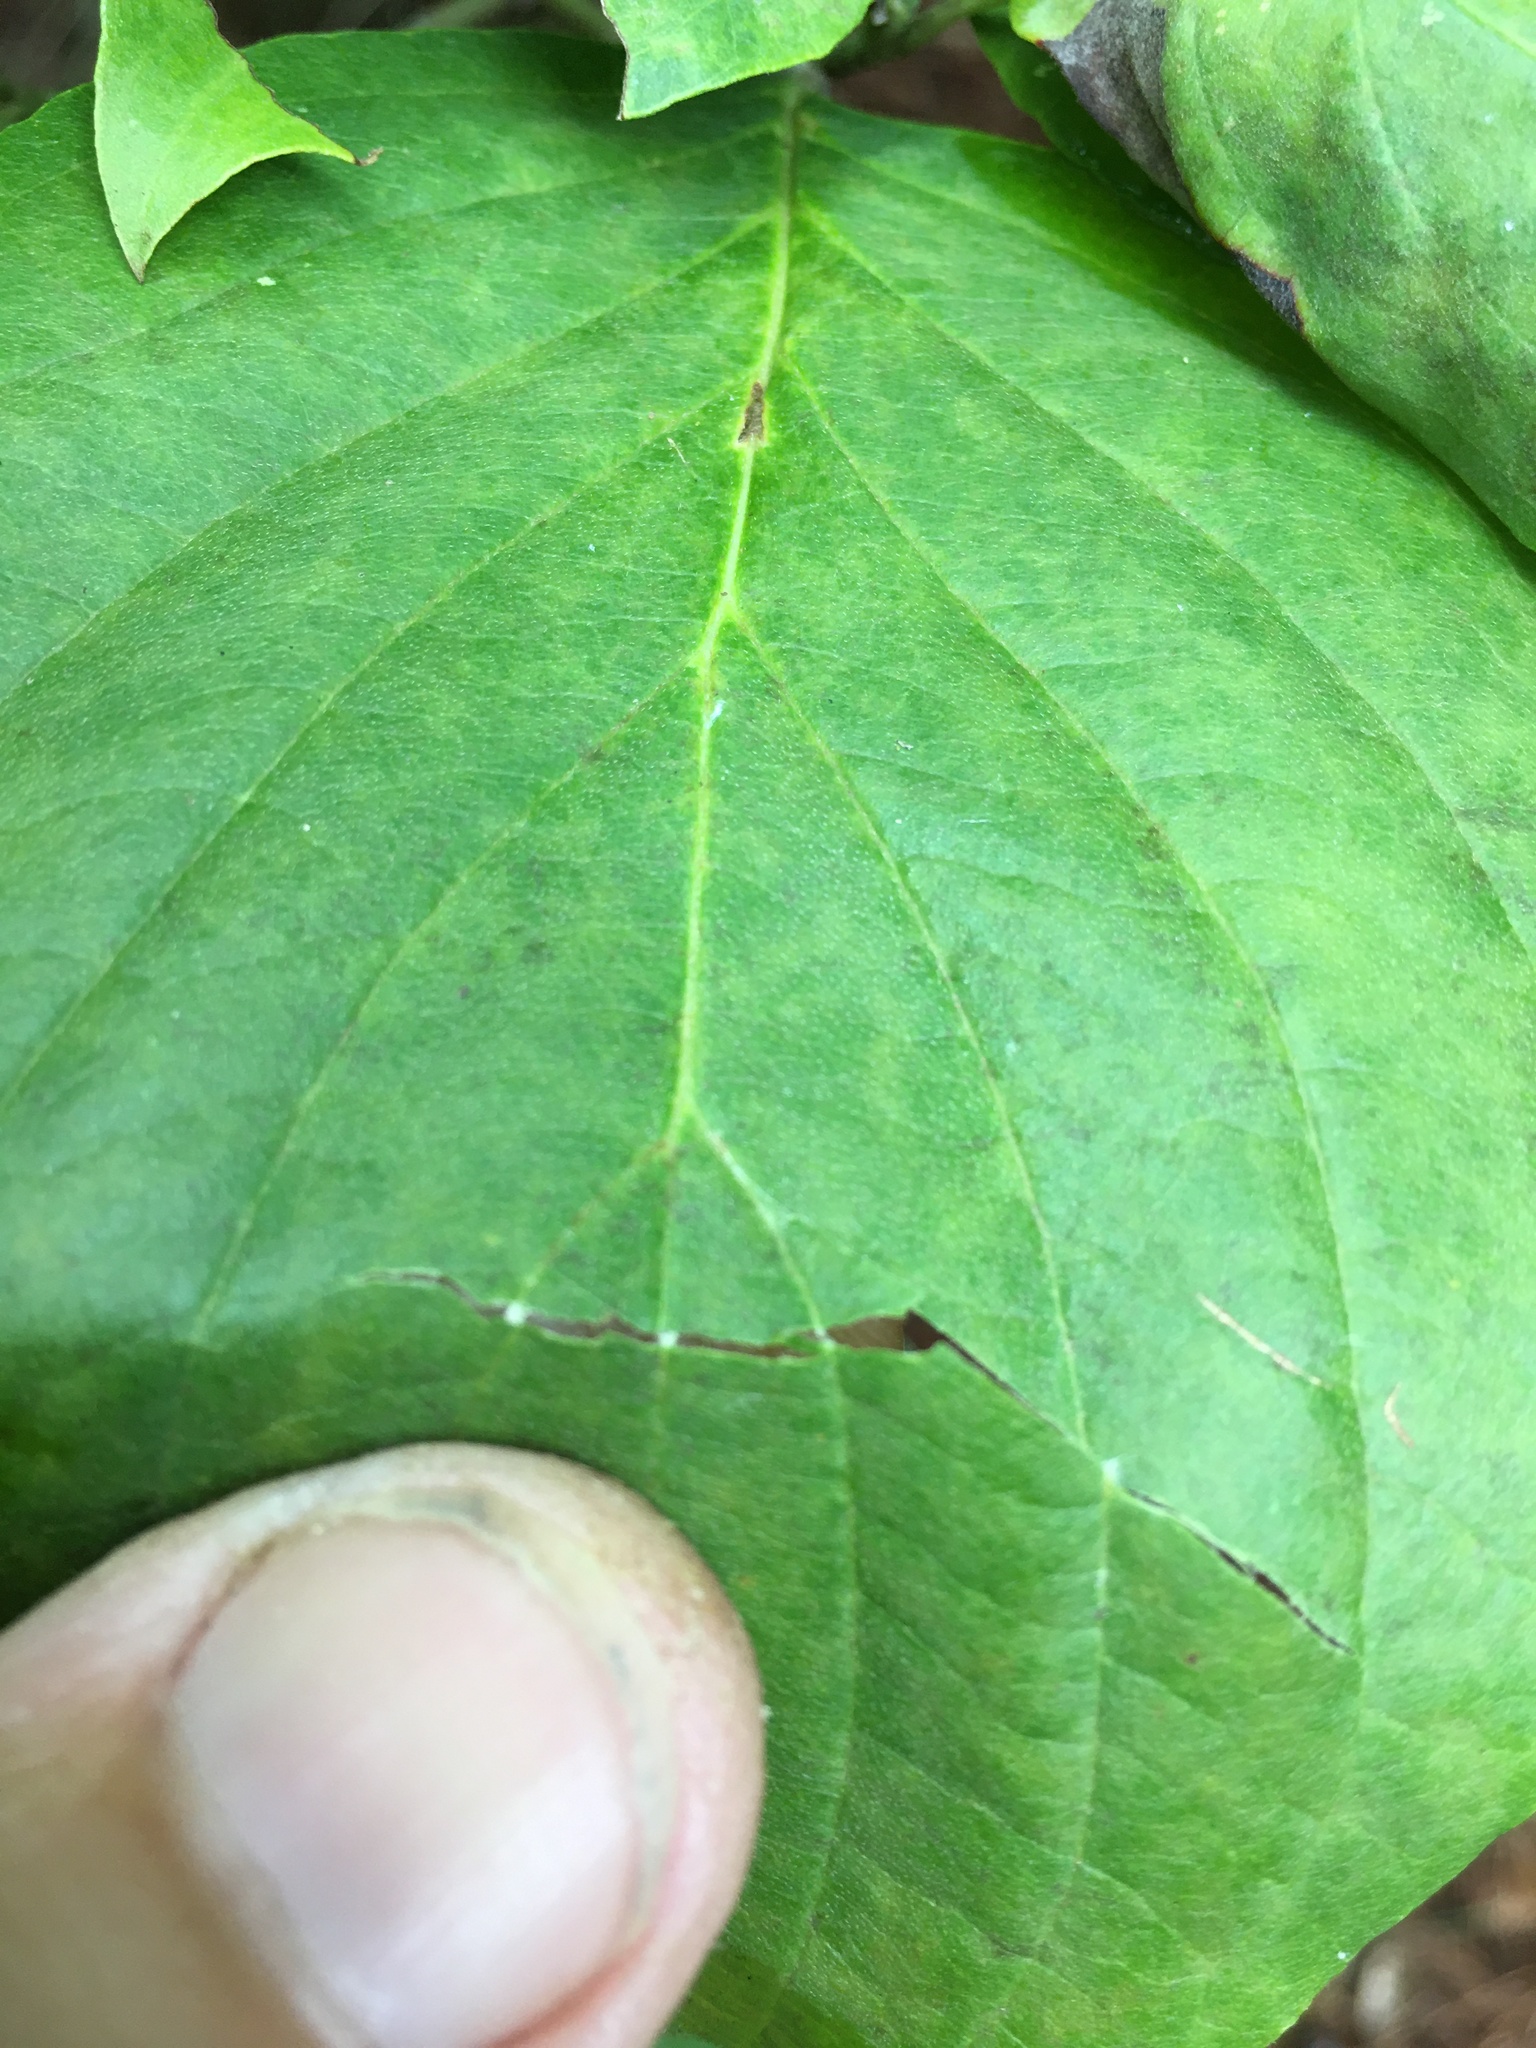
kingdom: Plantae
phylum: Tracheophyta
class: Magnoliopsida
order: Cornales
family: Cornaceae
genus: Cornus
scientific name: Cornus florida
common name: Flowering dogwood
